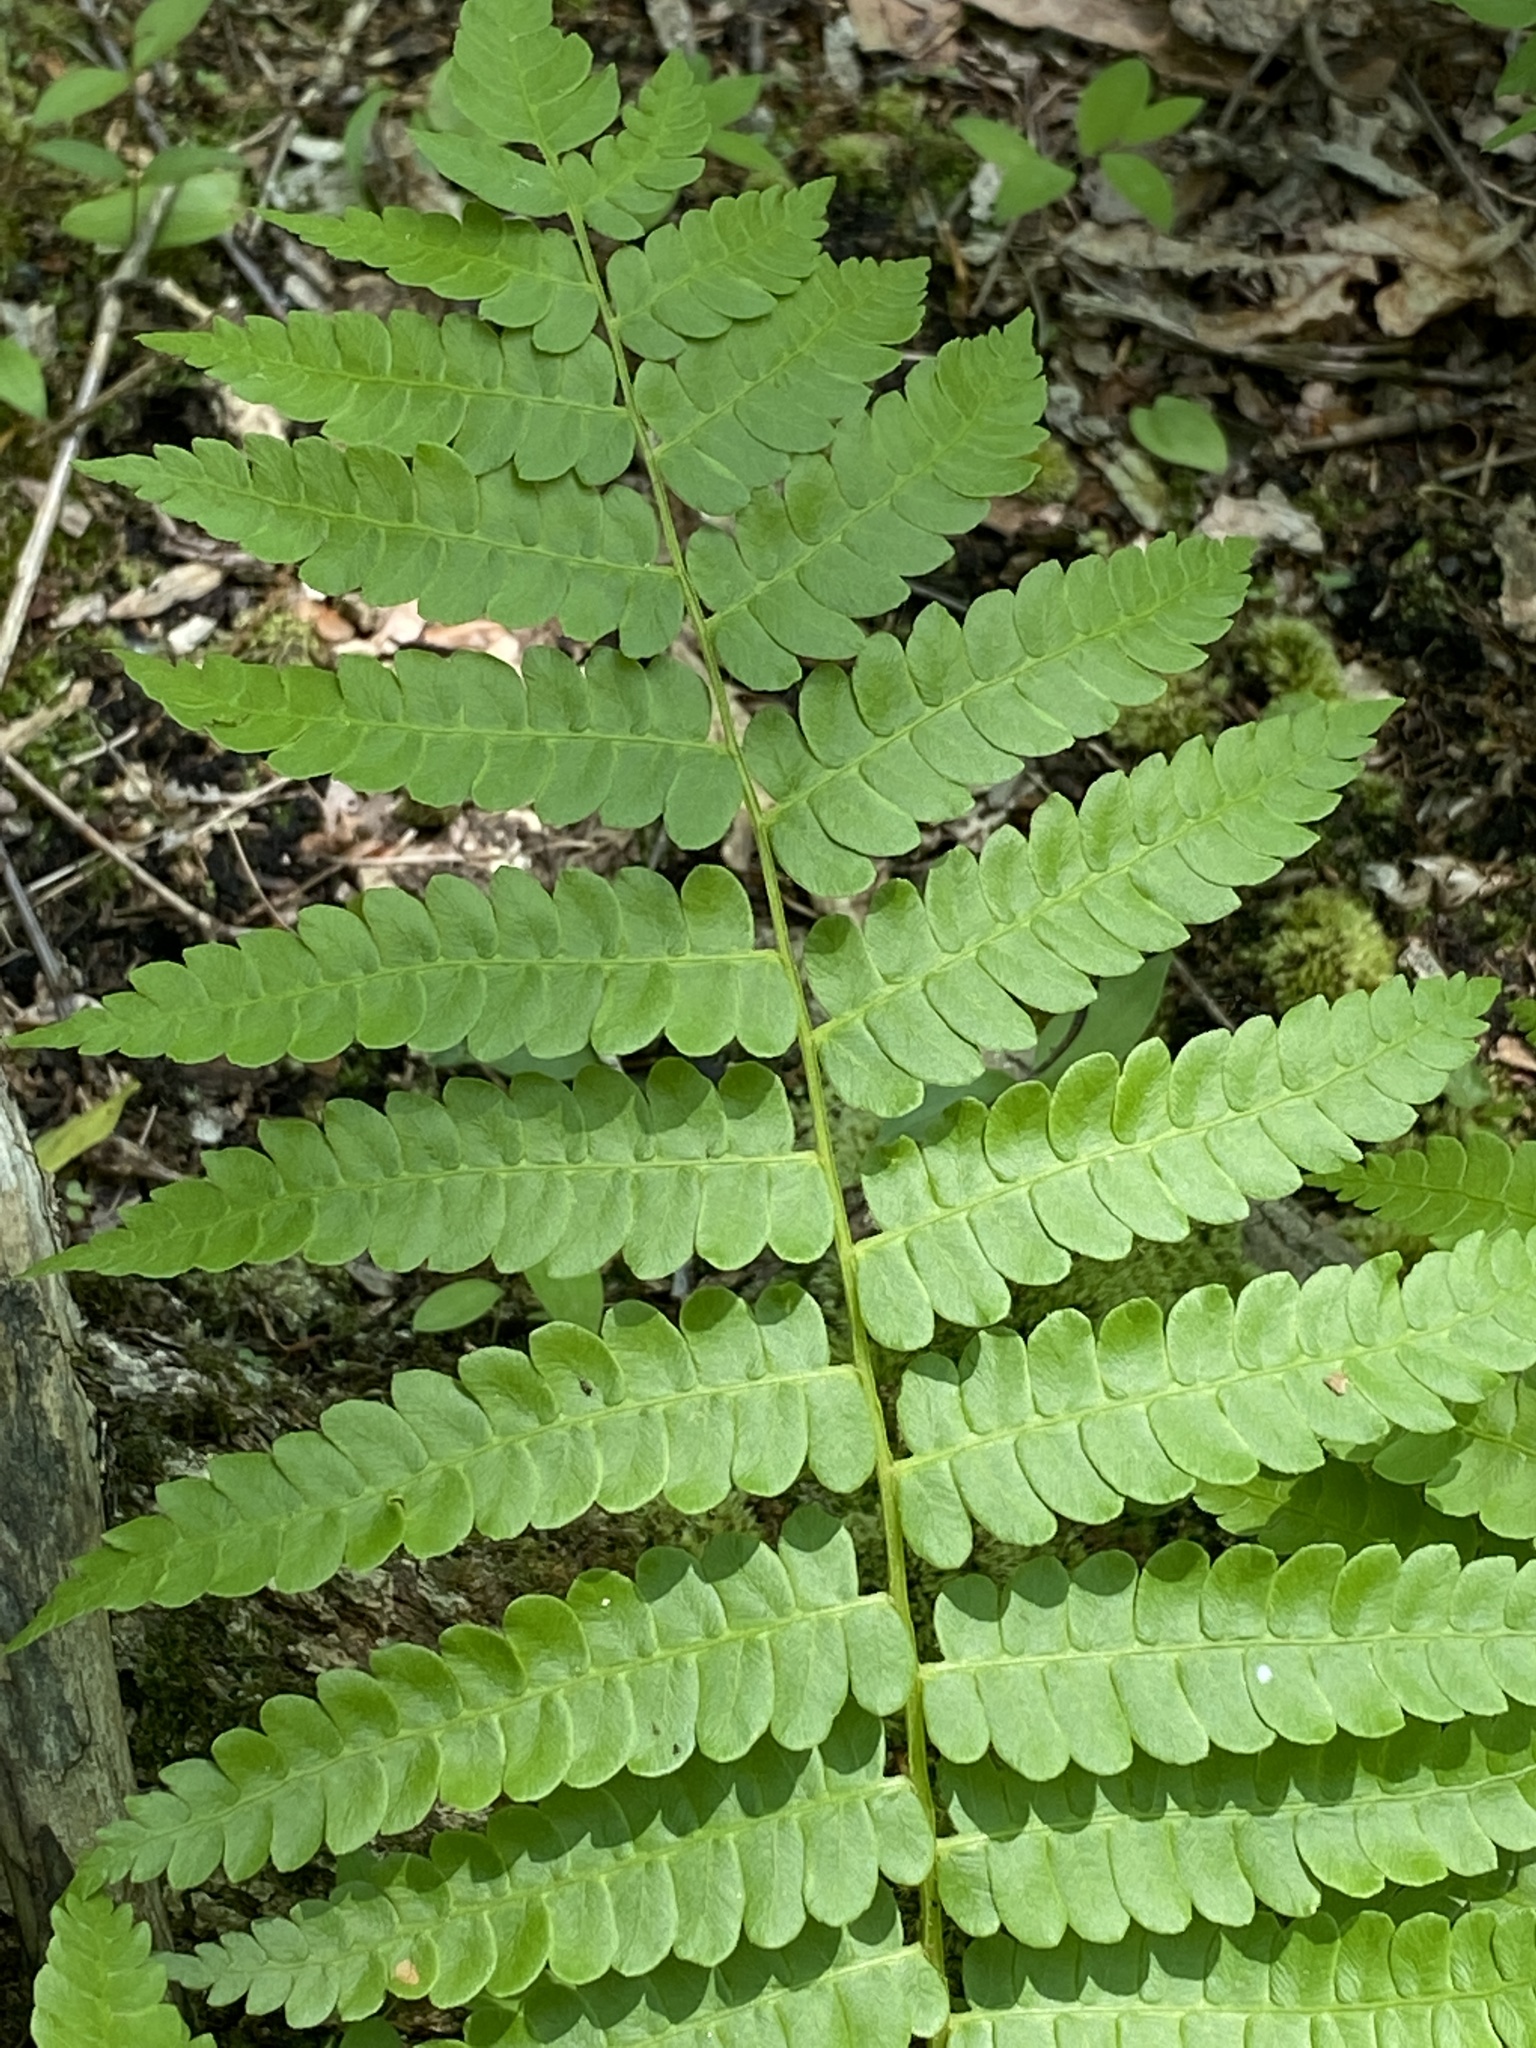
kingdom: Plantae
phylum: Tracheophyta
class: Polypodiopsida
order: Osmundales
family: Osmundaceae
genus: Osmundastrum
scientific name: Osmundastrum cinnamomeum
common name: Cinnamon fern
